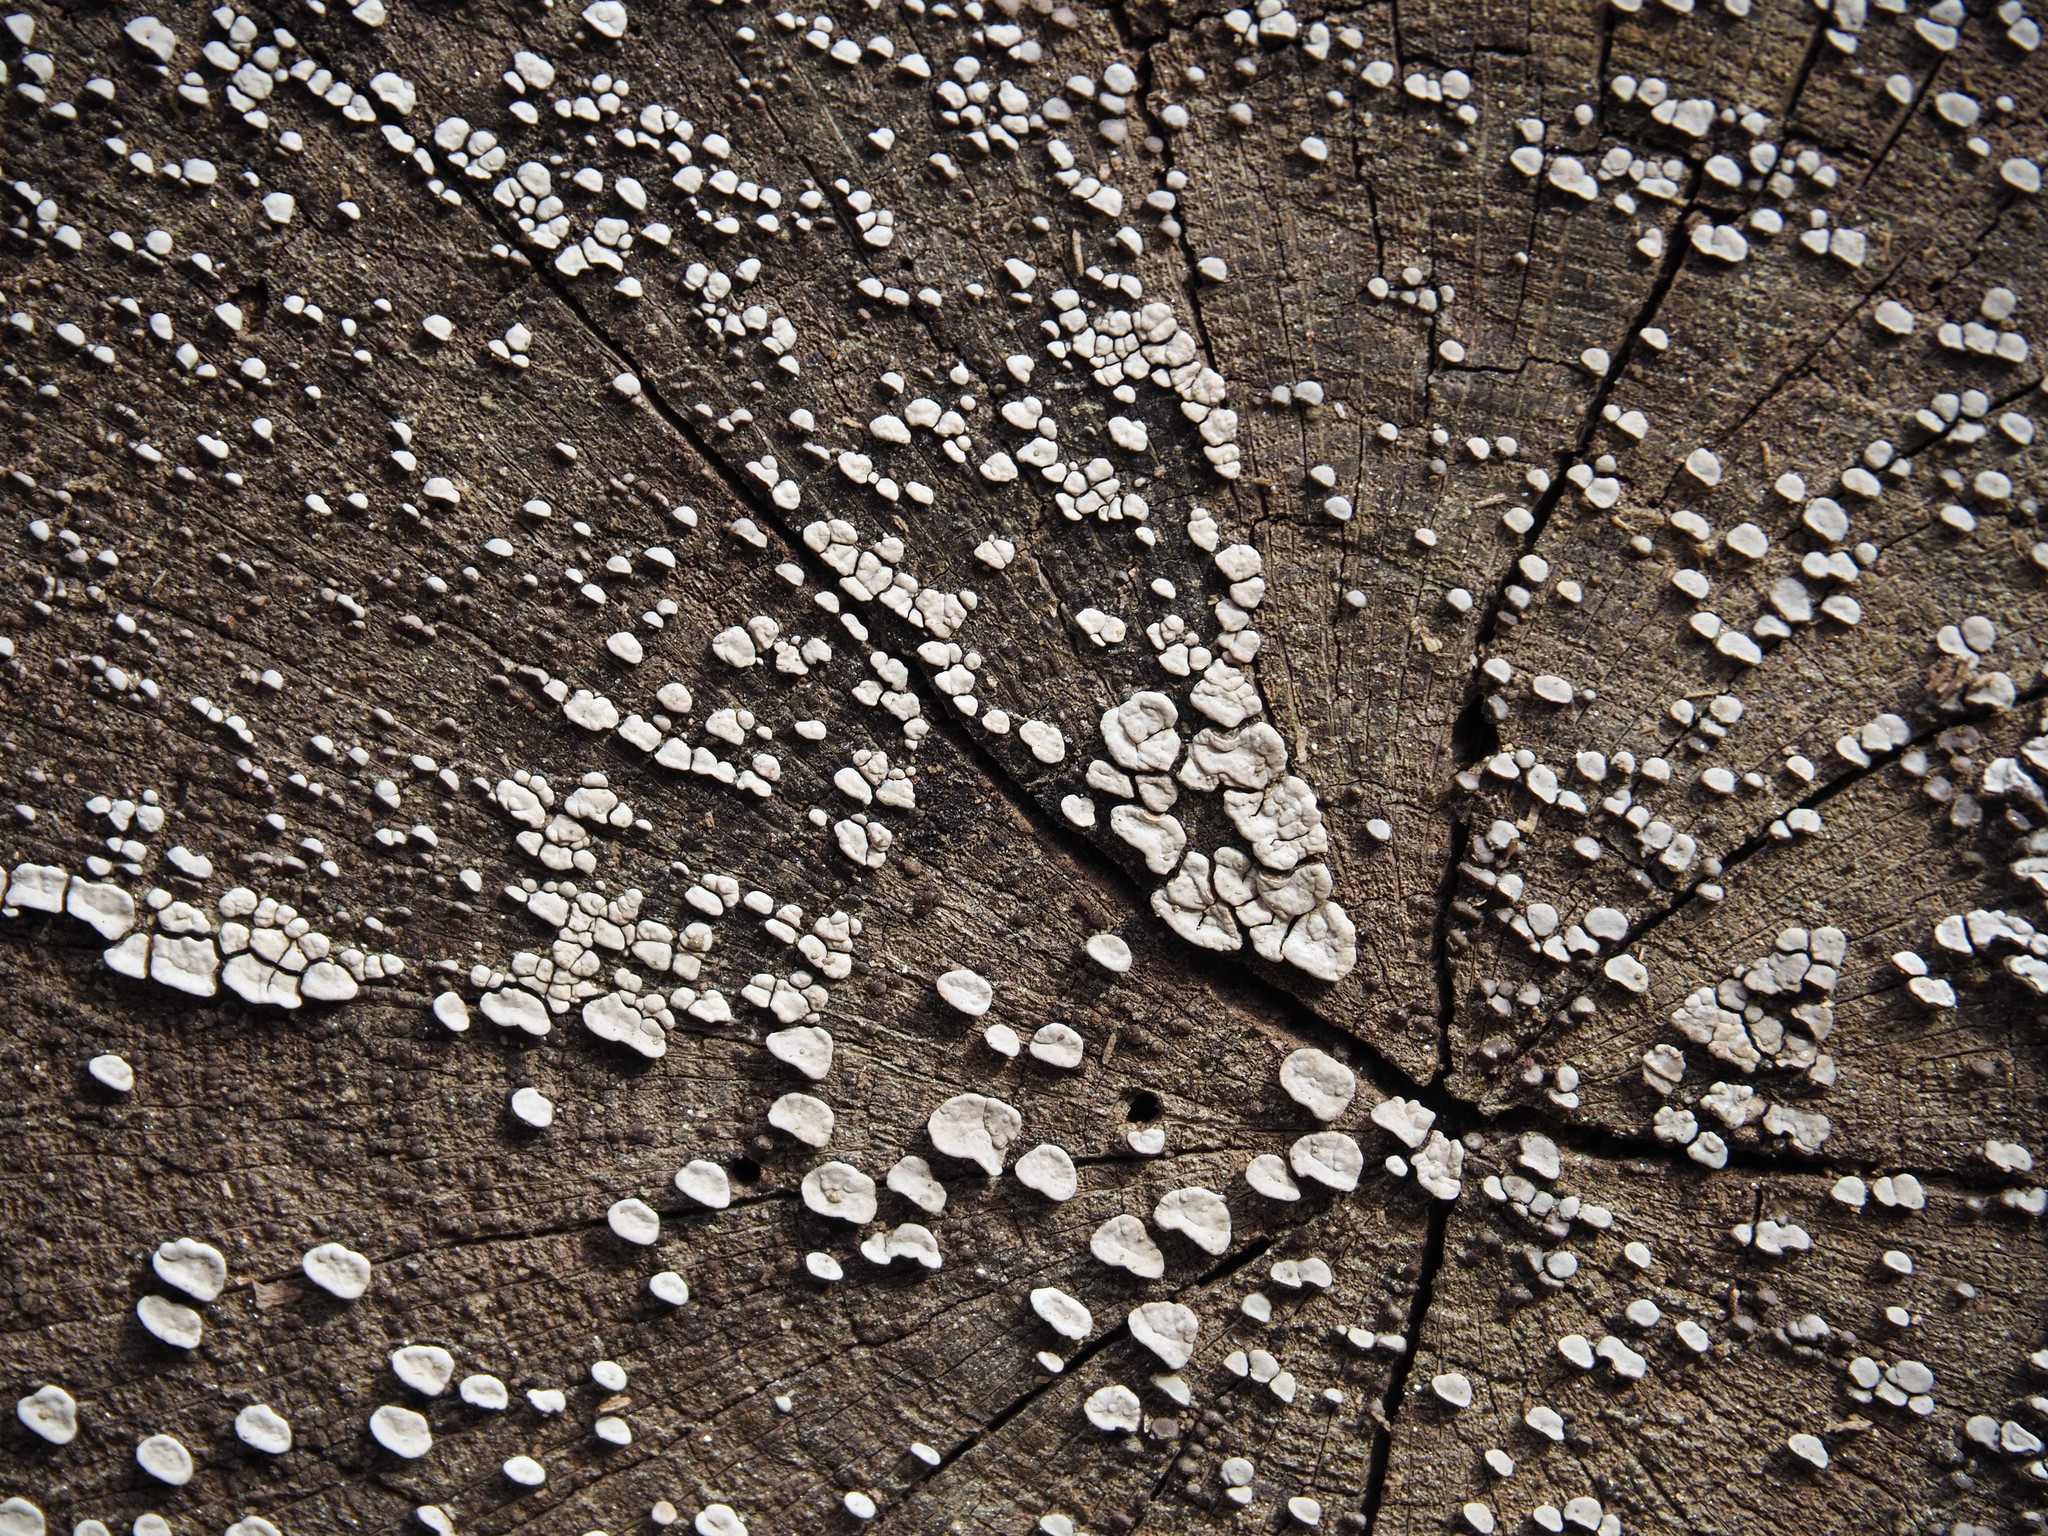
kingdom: Fungi
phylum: Basidiomycota
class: Agaricomycetes
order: Russulales
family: Stereaceae
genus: Xylobolus
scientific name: Xylobolus frustulatus
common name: Ceramic parchment
